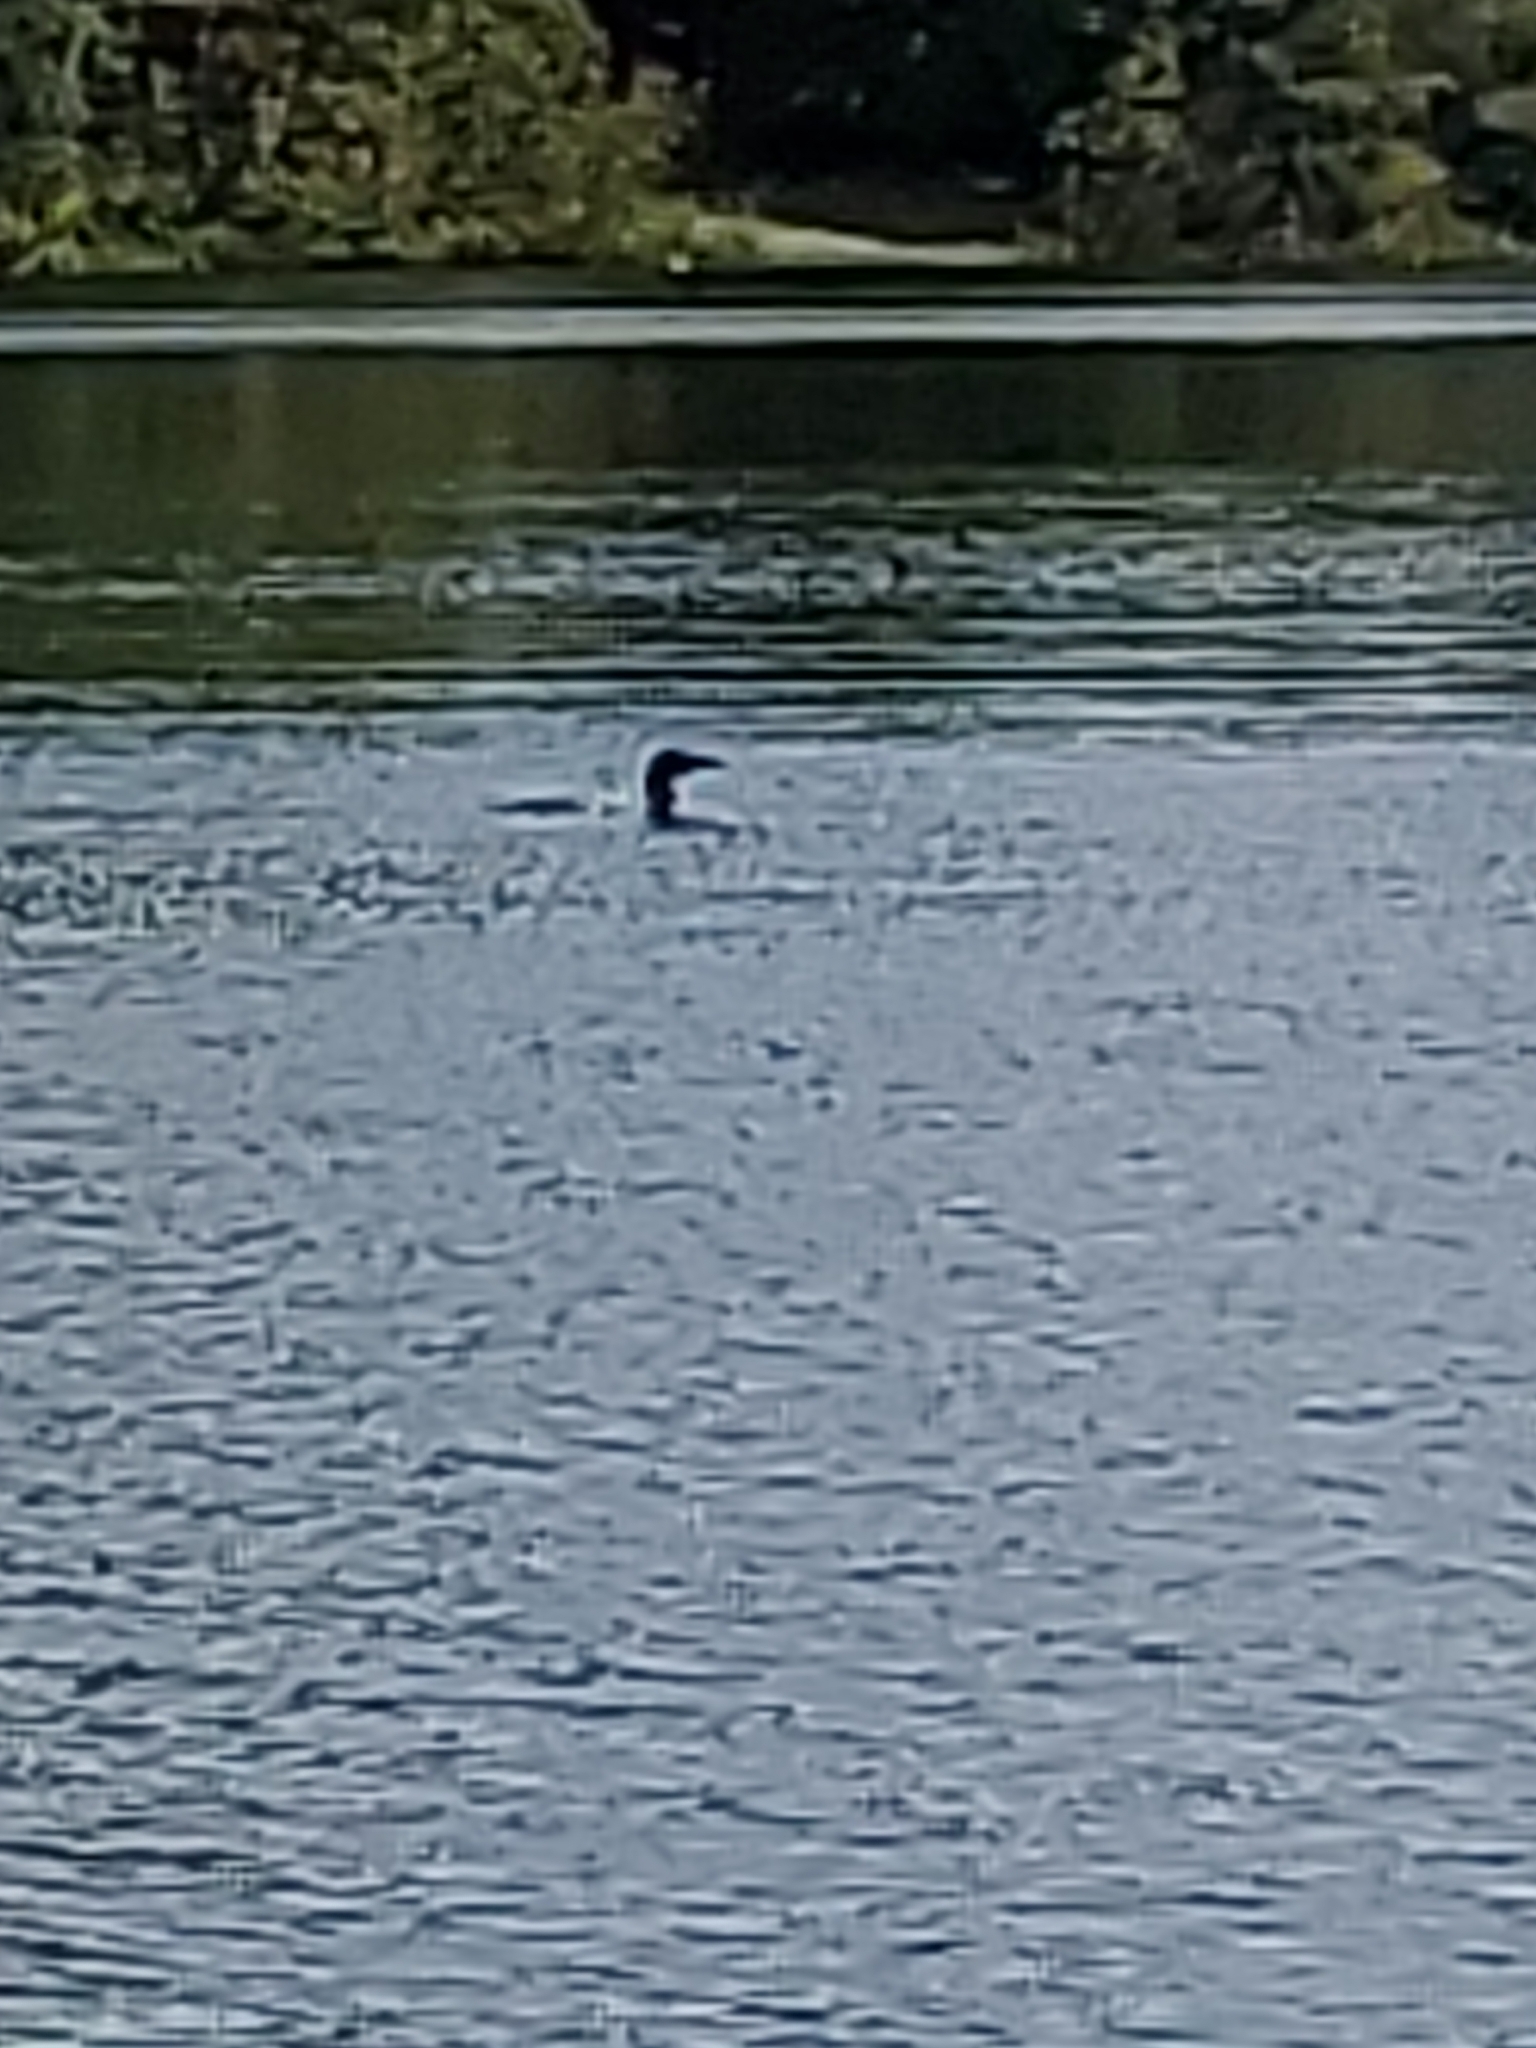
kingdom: Animalia
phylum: Chordata
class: Aves
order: Gaviiformes
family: Gaviidae
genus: Gavia
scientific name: Gavia immer
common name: Common loon
